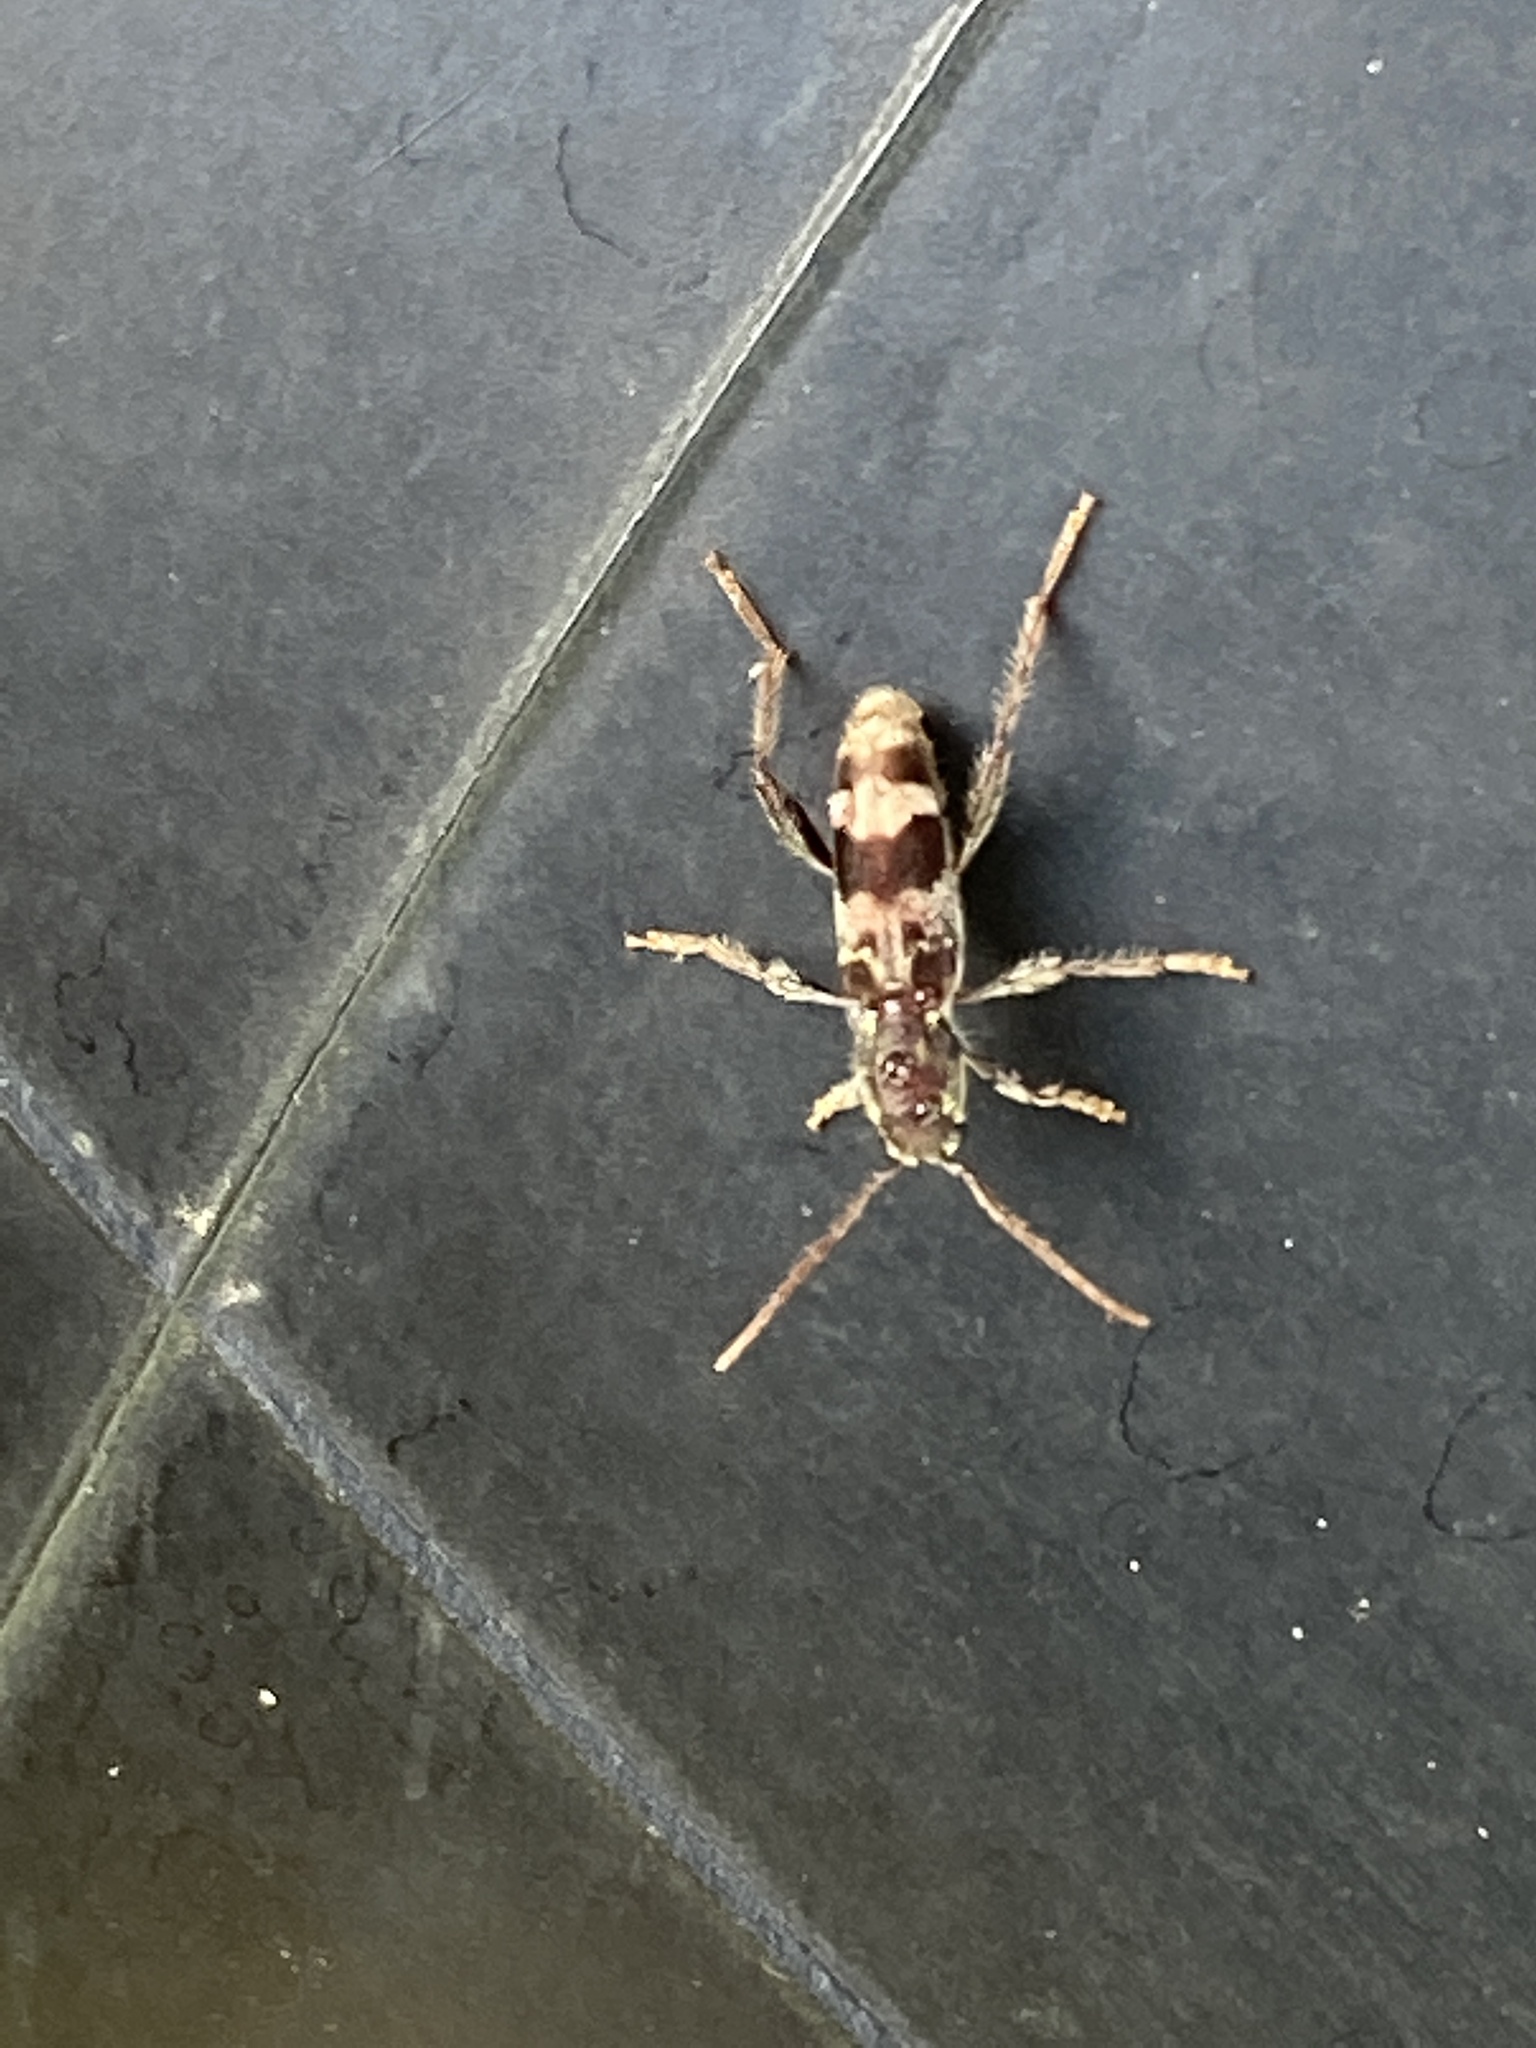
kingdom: Animalia
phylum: Arthropoda
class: Insecta
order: Coleoptera
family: Cerambycidae
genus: Xylotrechus
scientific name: Xylotrechus colonus
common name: Long-horned beetle
